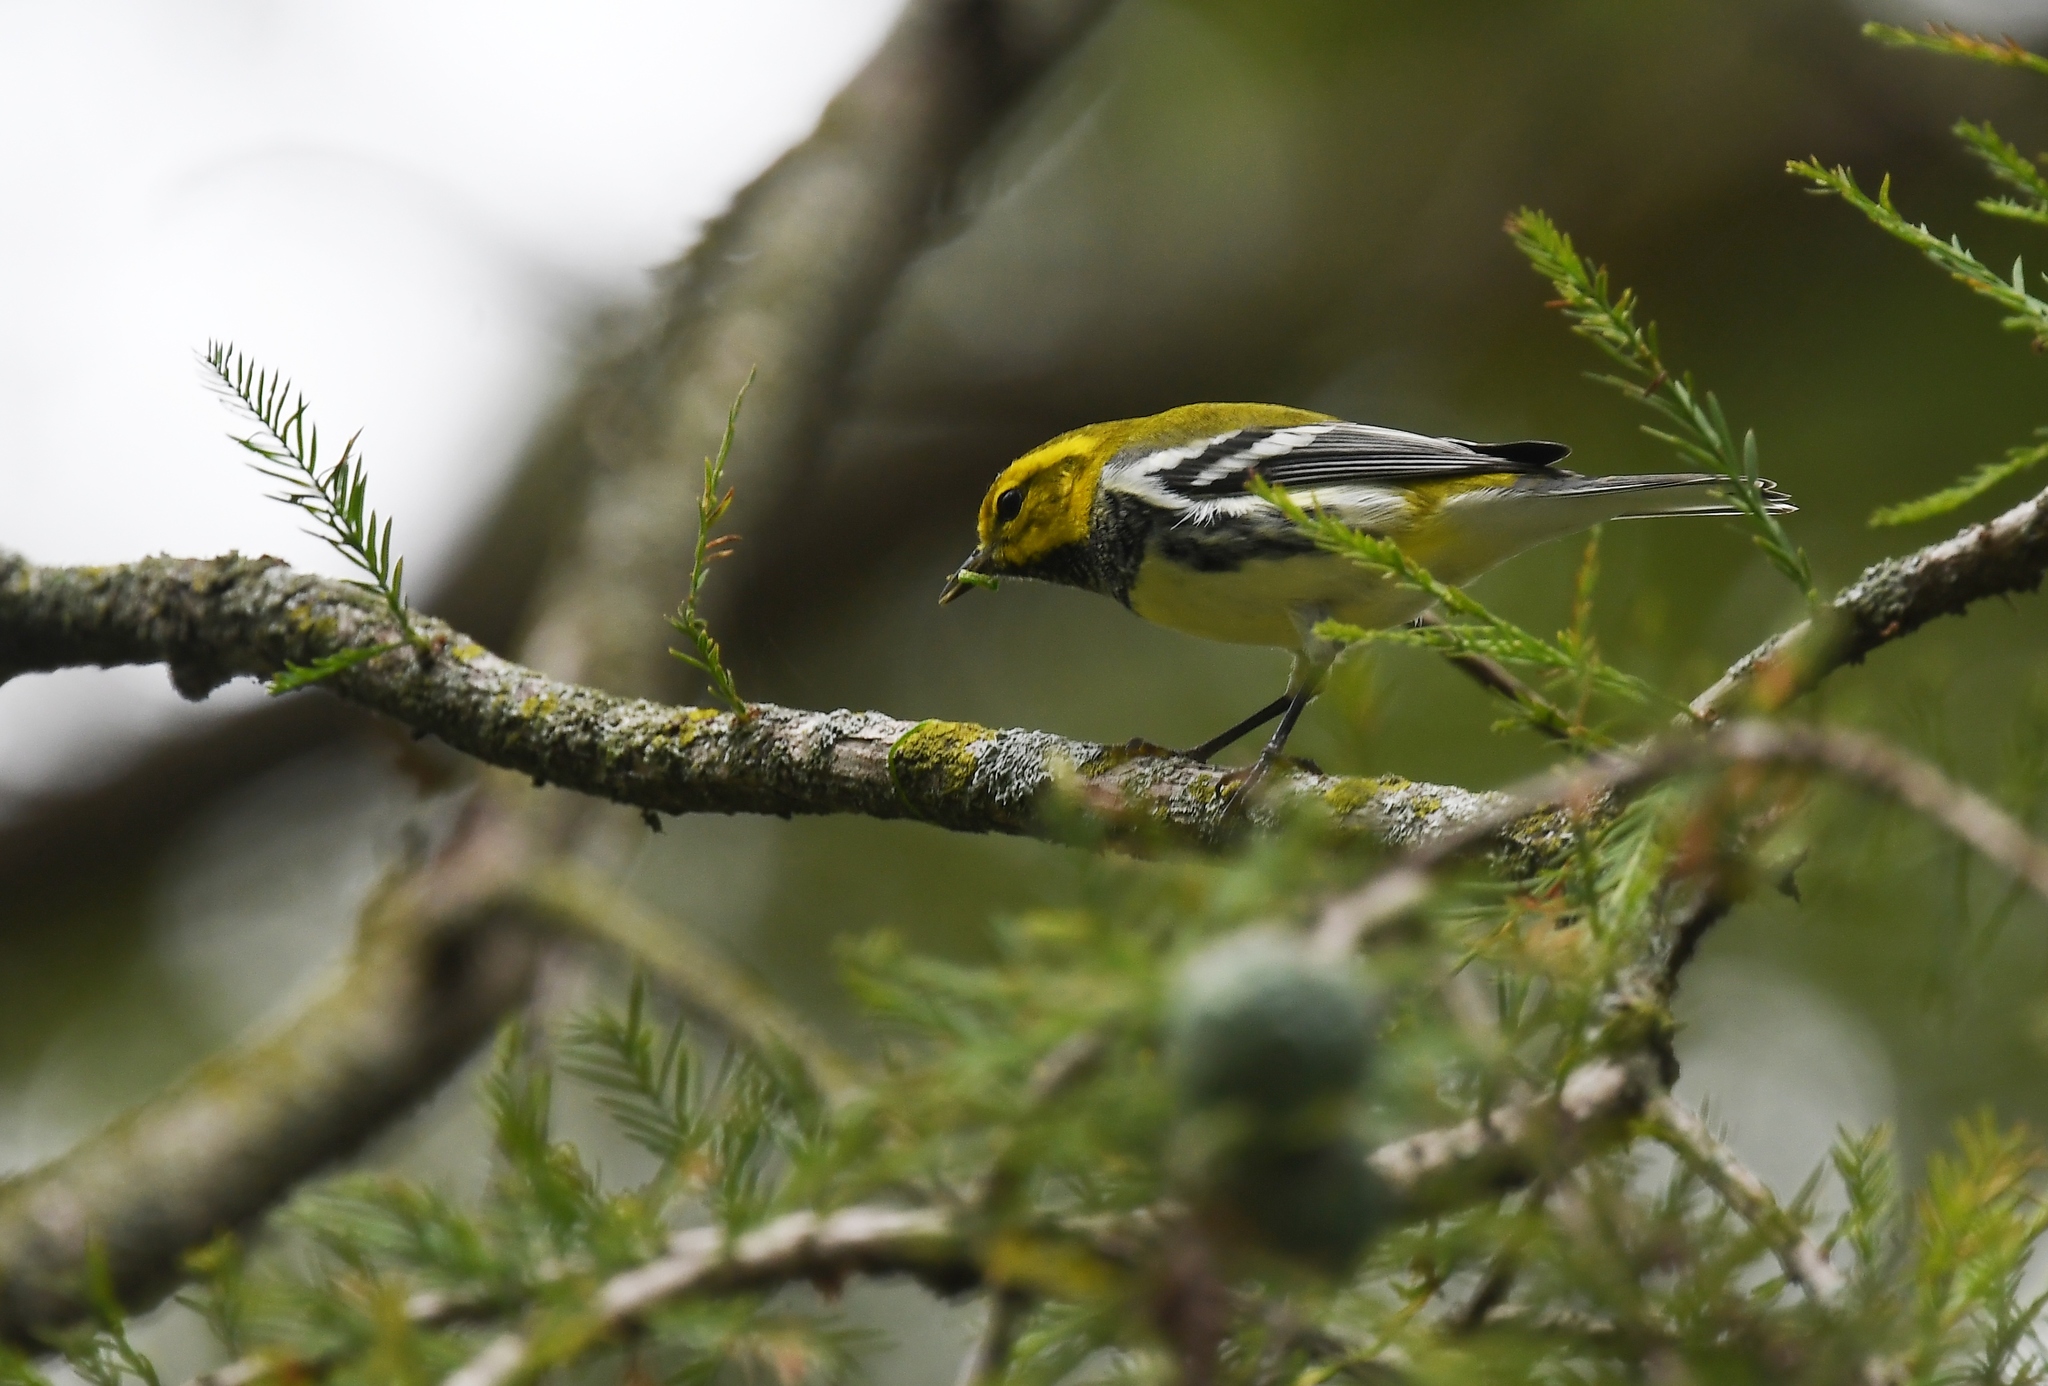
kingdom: Animalia
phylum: Chordata
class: Aves
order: Passeriformes
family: Parulidae
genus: Setophaga
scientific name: Setophaga virens
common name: Black-throated green warbler
